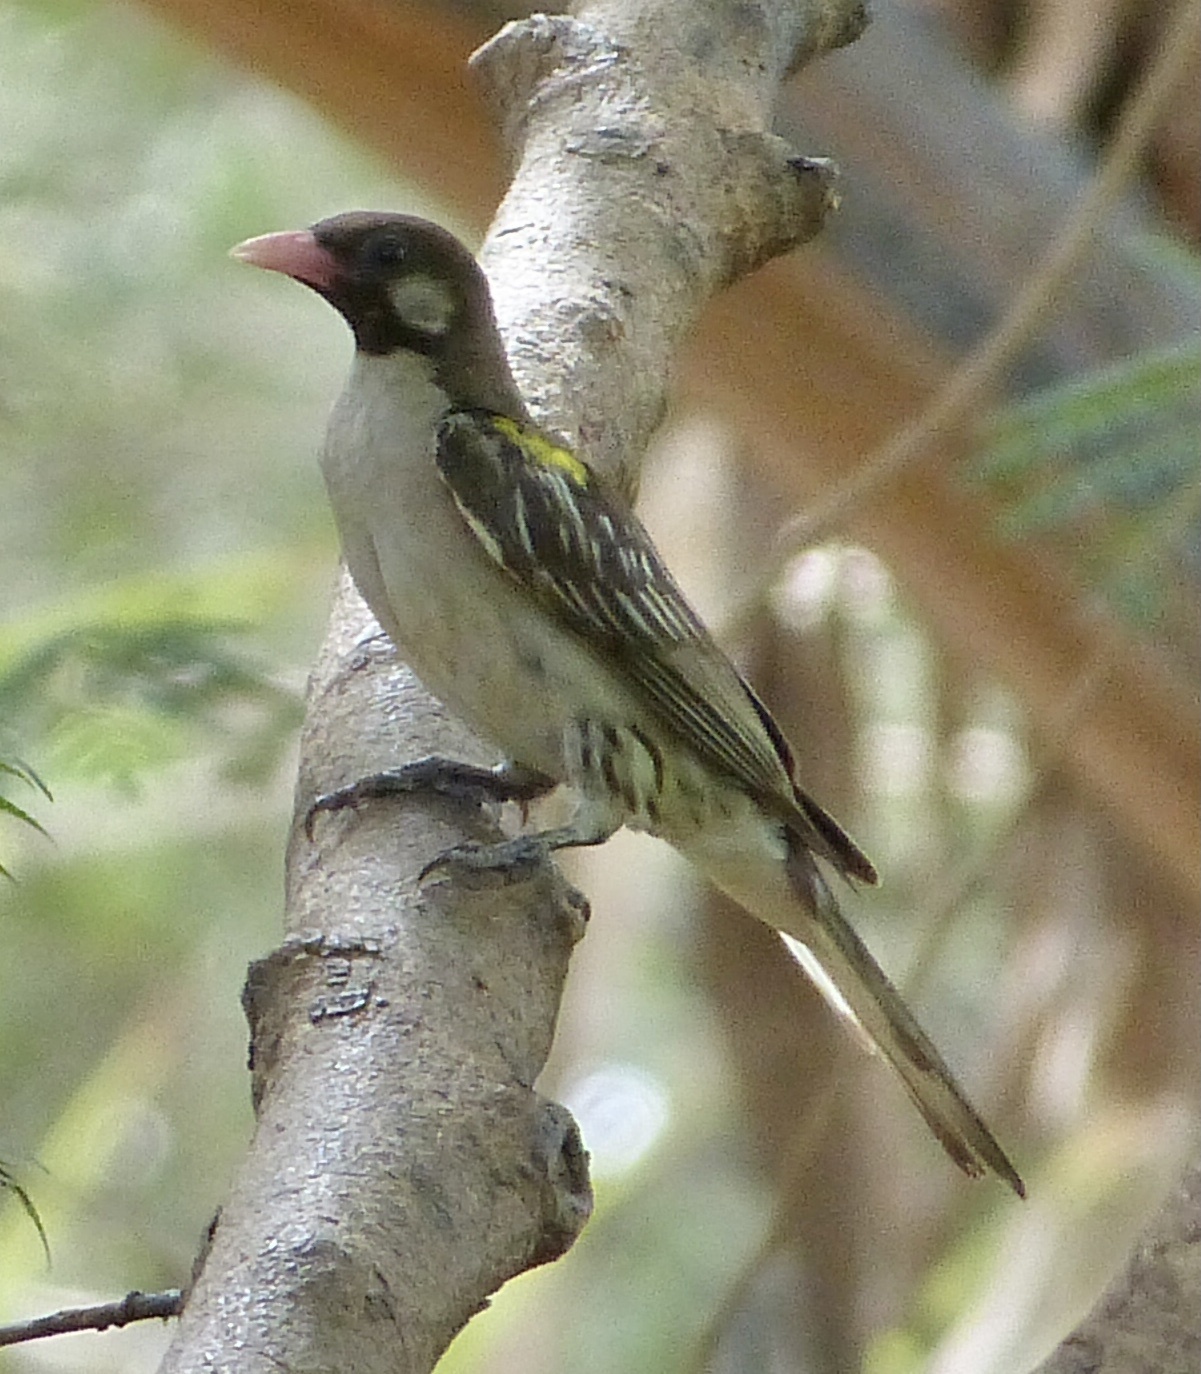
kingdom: Animalia
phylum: Chordata
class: Aves
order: Piciformes
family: Indicatoridae
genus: Indicator
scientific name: Indicator indicator
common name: Greater honeyguide
